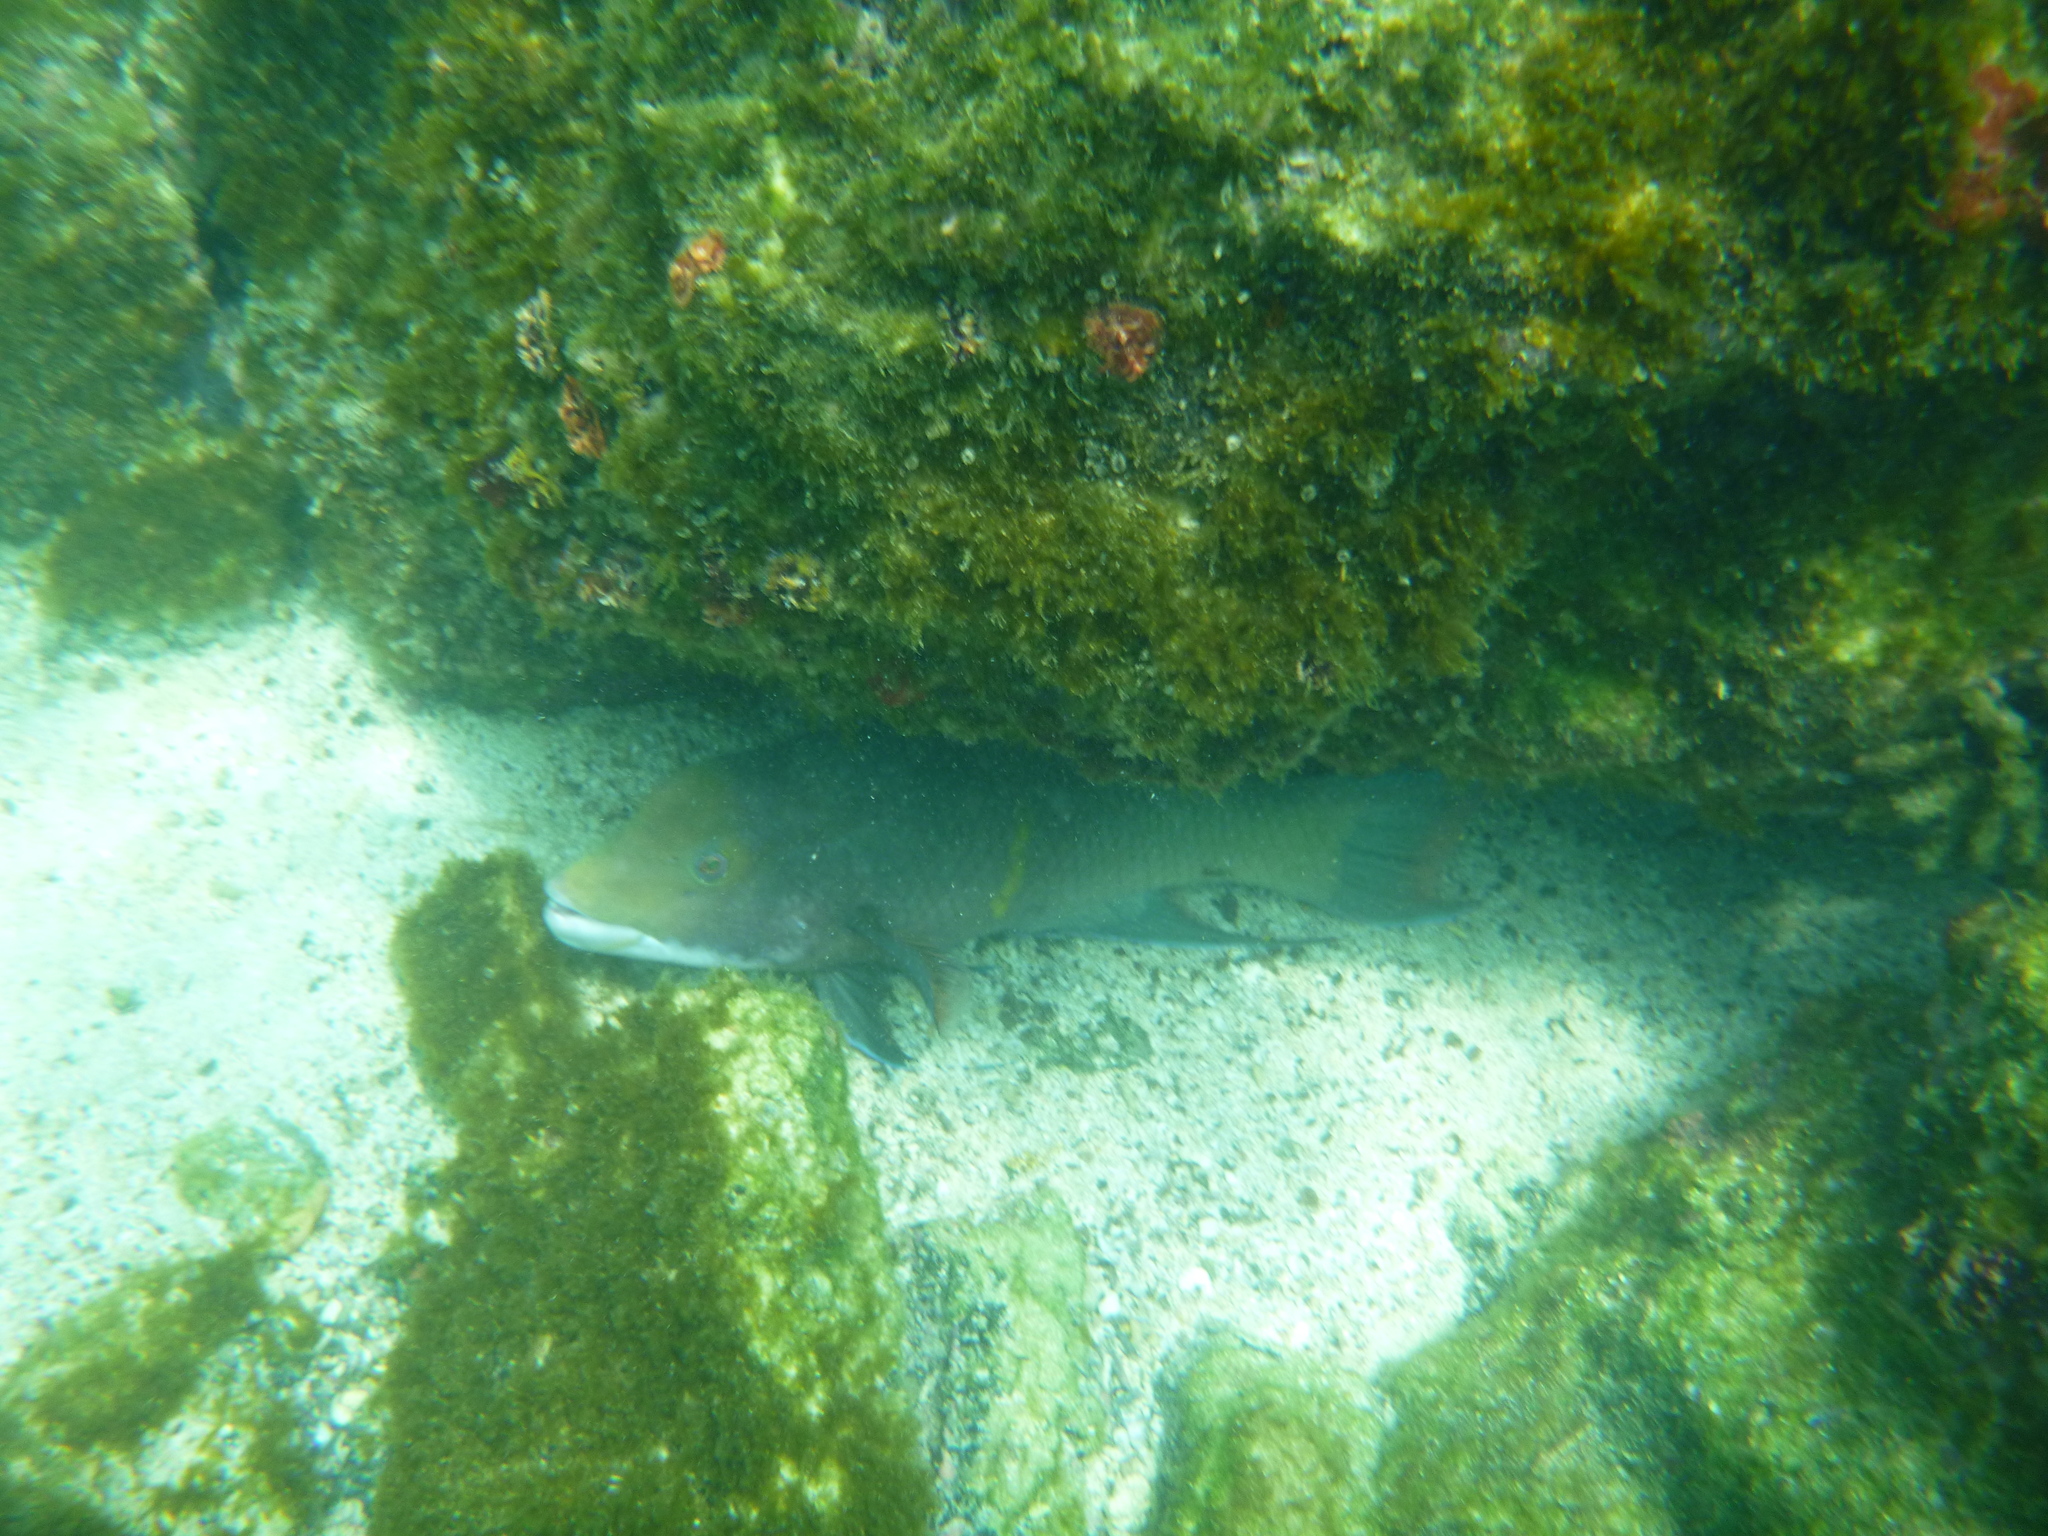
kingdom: Animalia
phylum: Chordata
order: Perciformes
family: Labridae
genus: Bodianus
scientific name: Bodianus diplotaenia
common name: Mexican hogfish
